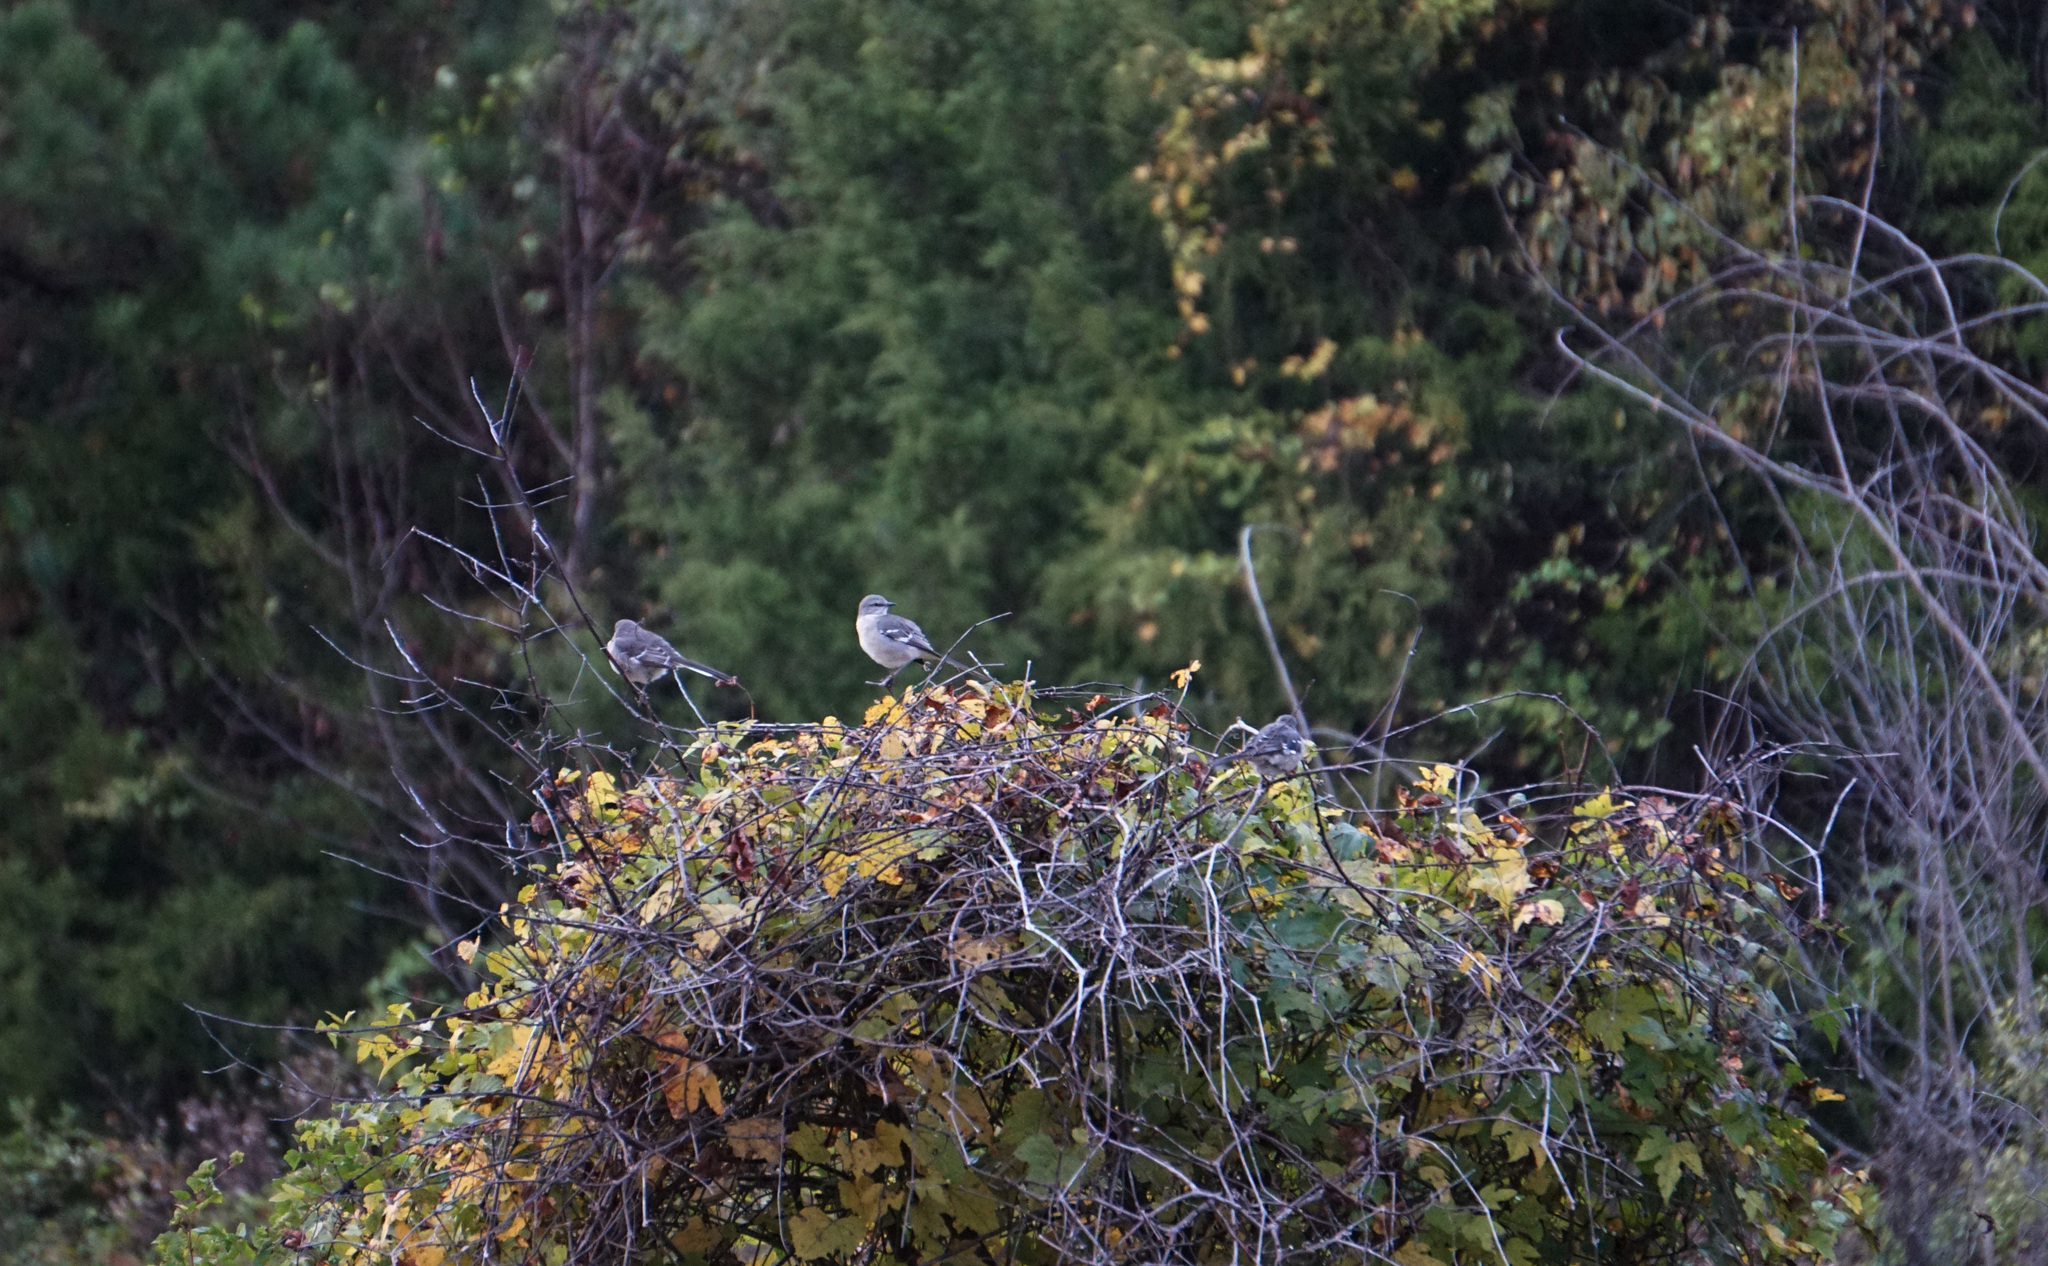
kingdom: Animalia
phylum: Chordata
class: Aves
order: Passeriformes
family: Mimidae
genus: Mimus
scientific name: Mimus polyglottos
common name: Northern mockingbird
